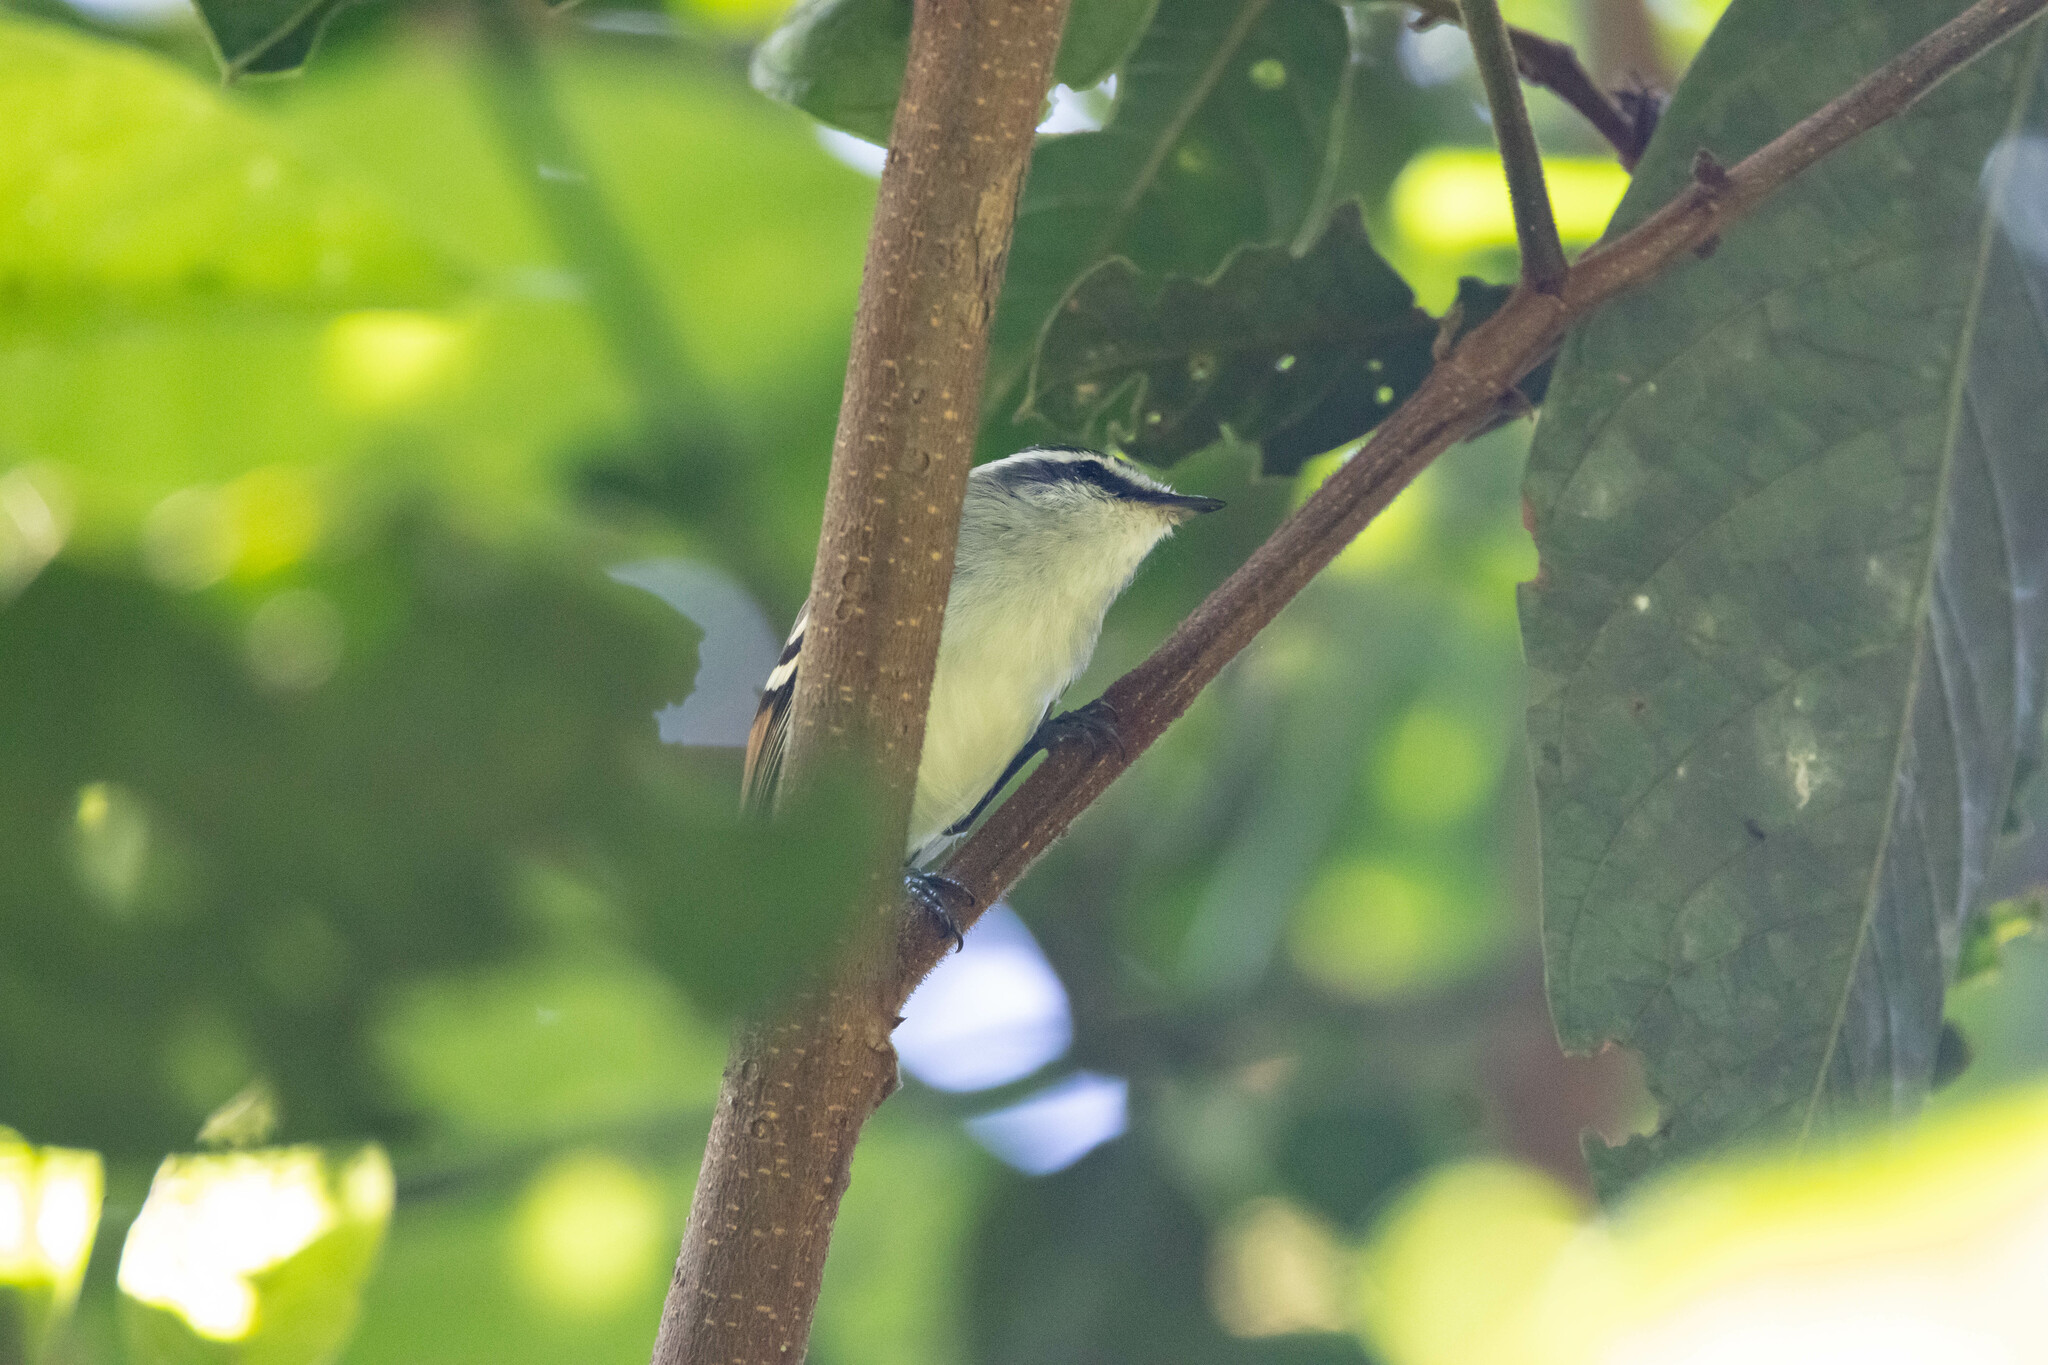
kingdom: Animalia
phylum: Chordata
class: Aves
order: Passeriformes
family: Tyrannidae
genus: Mecocerculus
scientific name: Mecocerculus calopterus
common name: Rufous-winged tyrannulet
